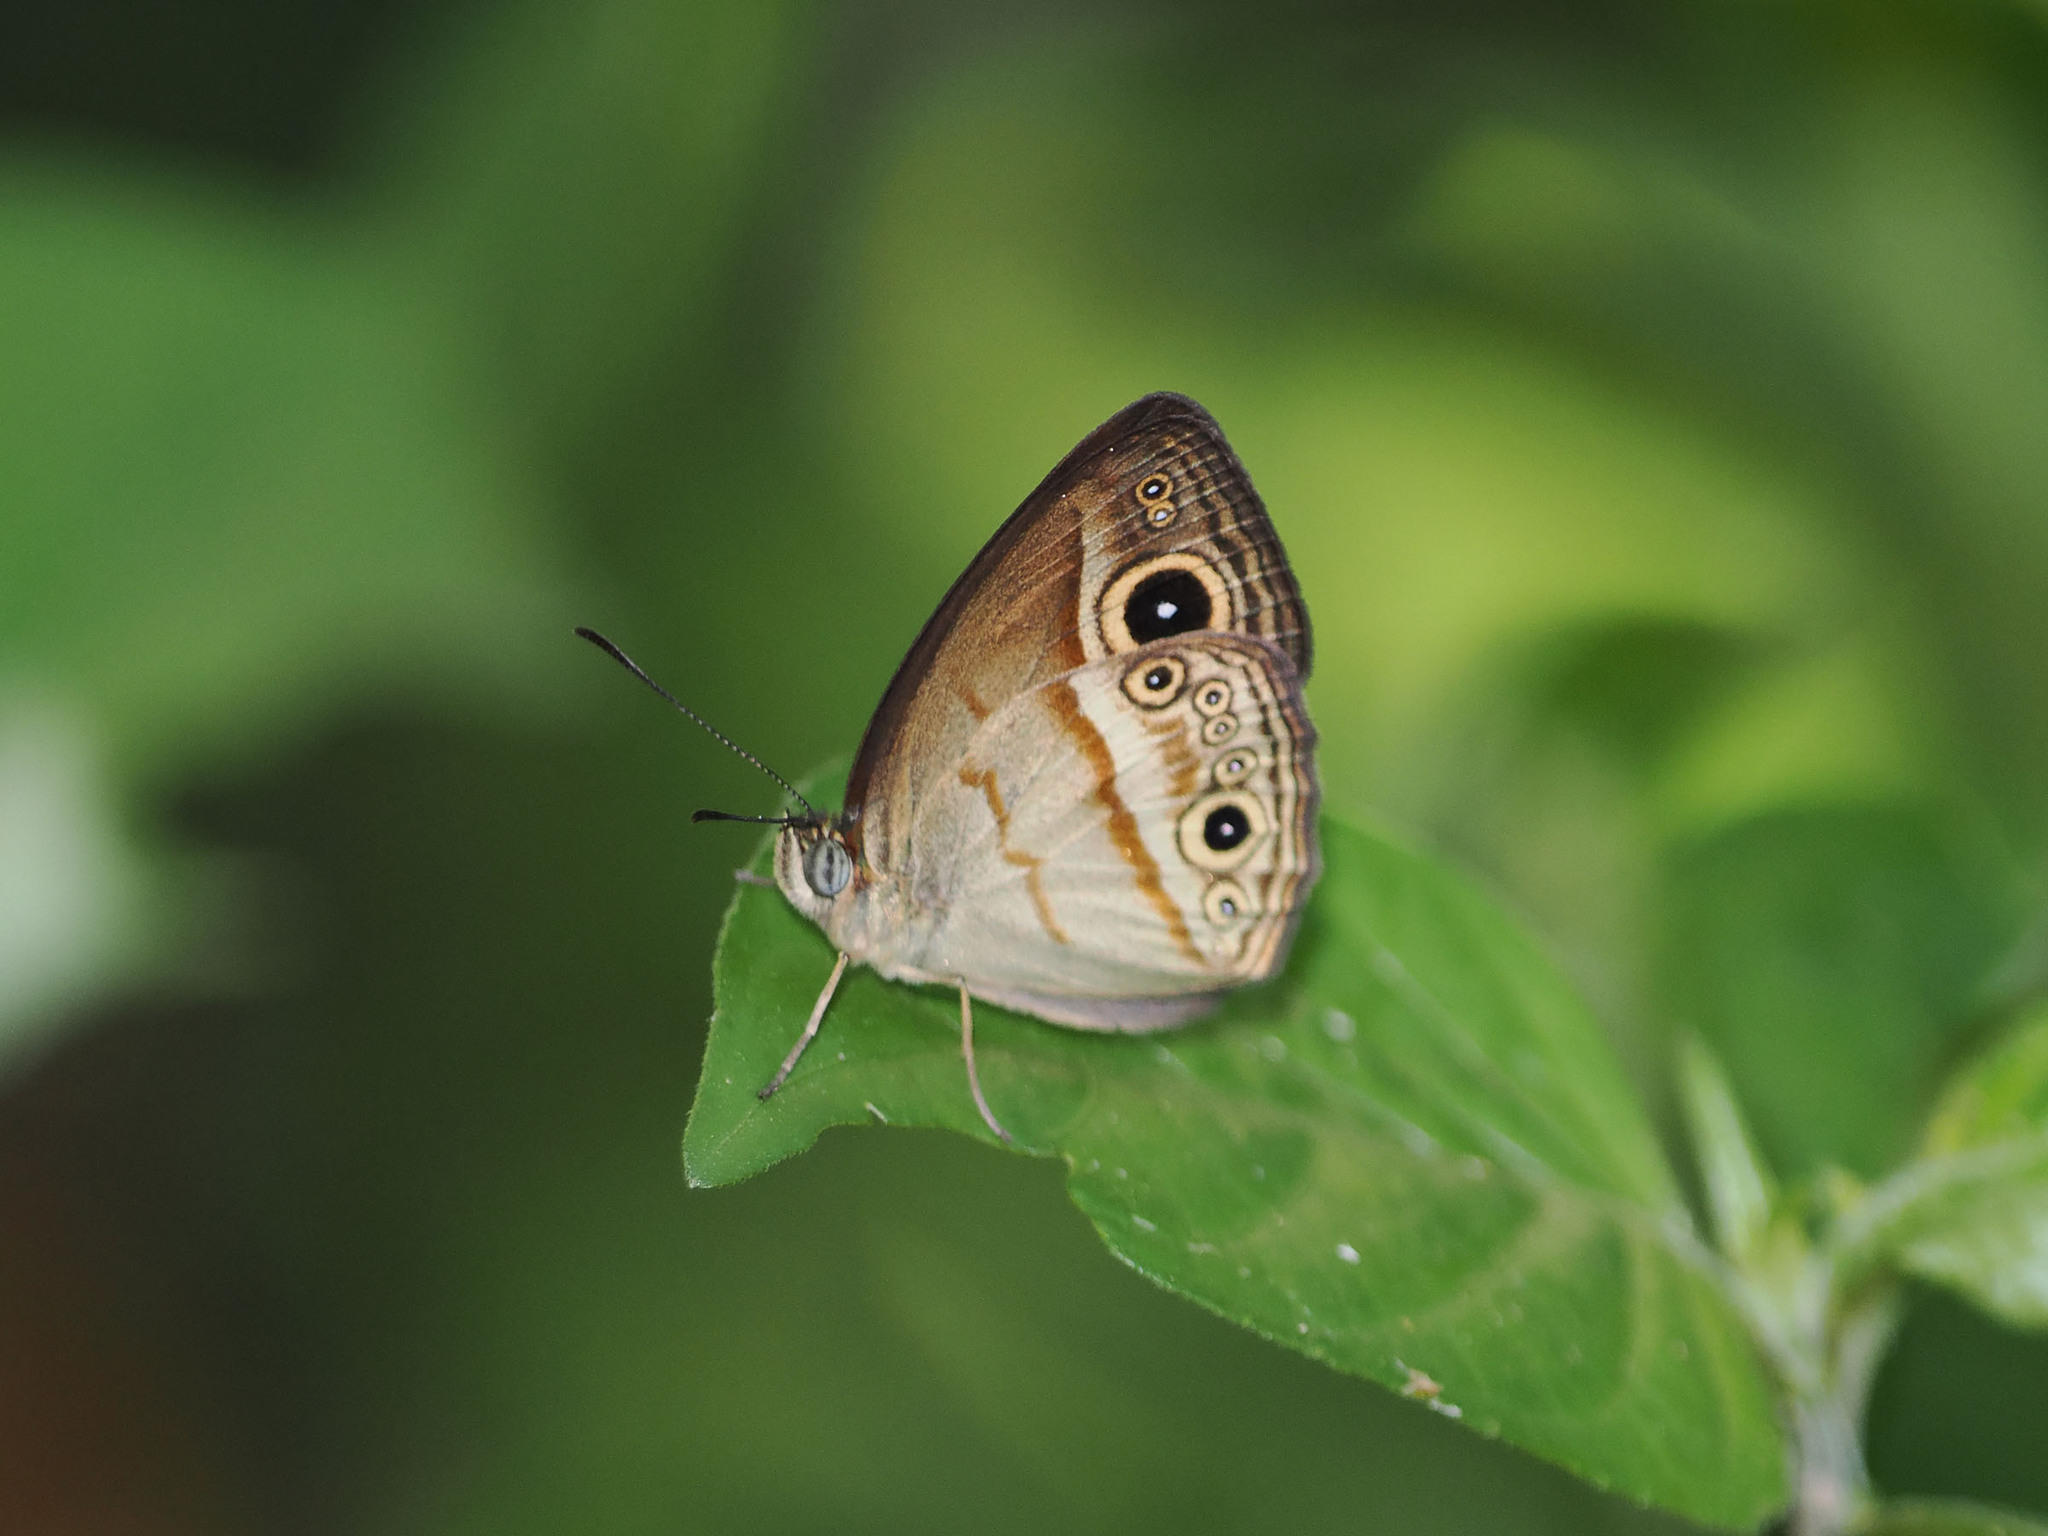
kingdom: Animalia
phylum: Arthropoda
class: Insecta
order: Lepidoptera
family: Nymphalidae
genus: Mycalesis
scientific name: Mycalesis ita
